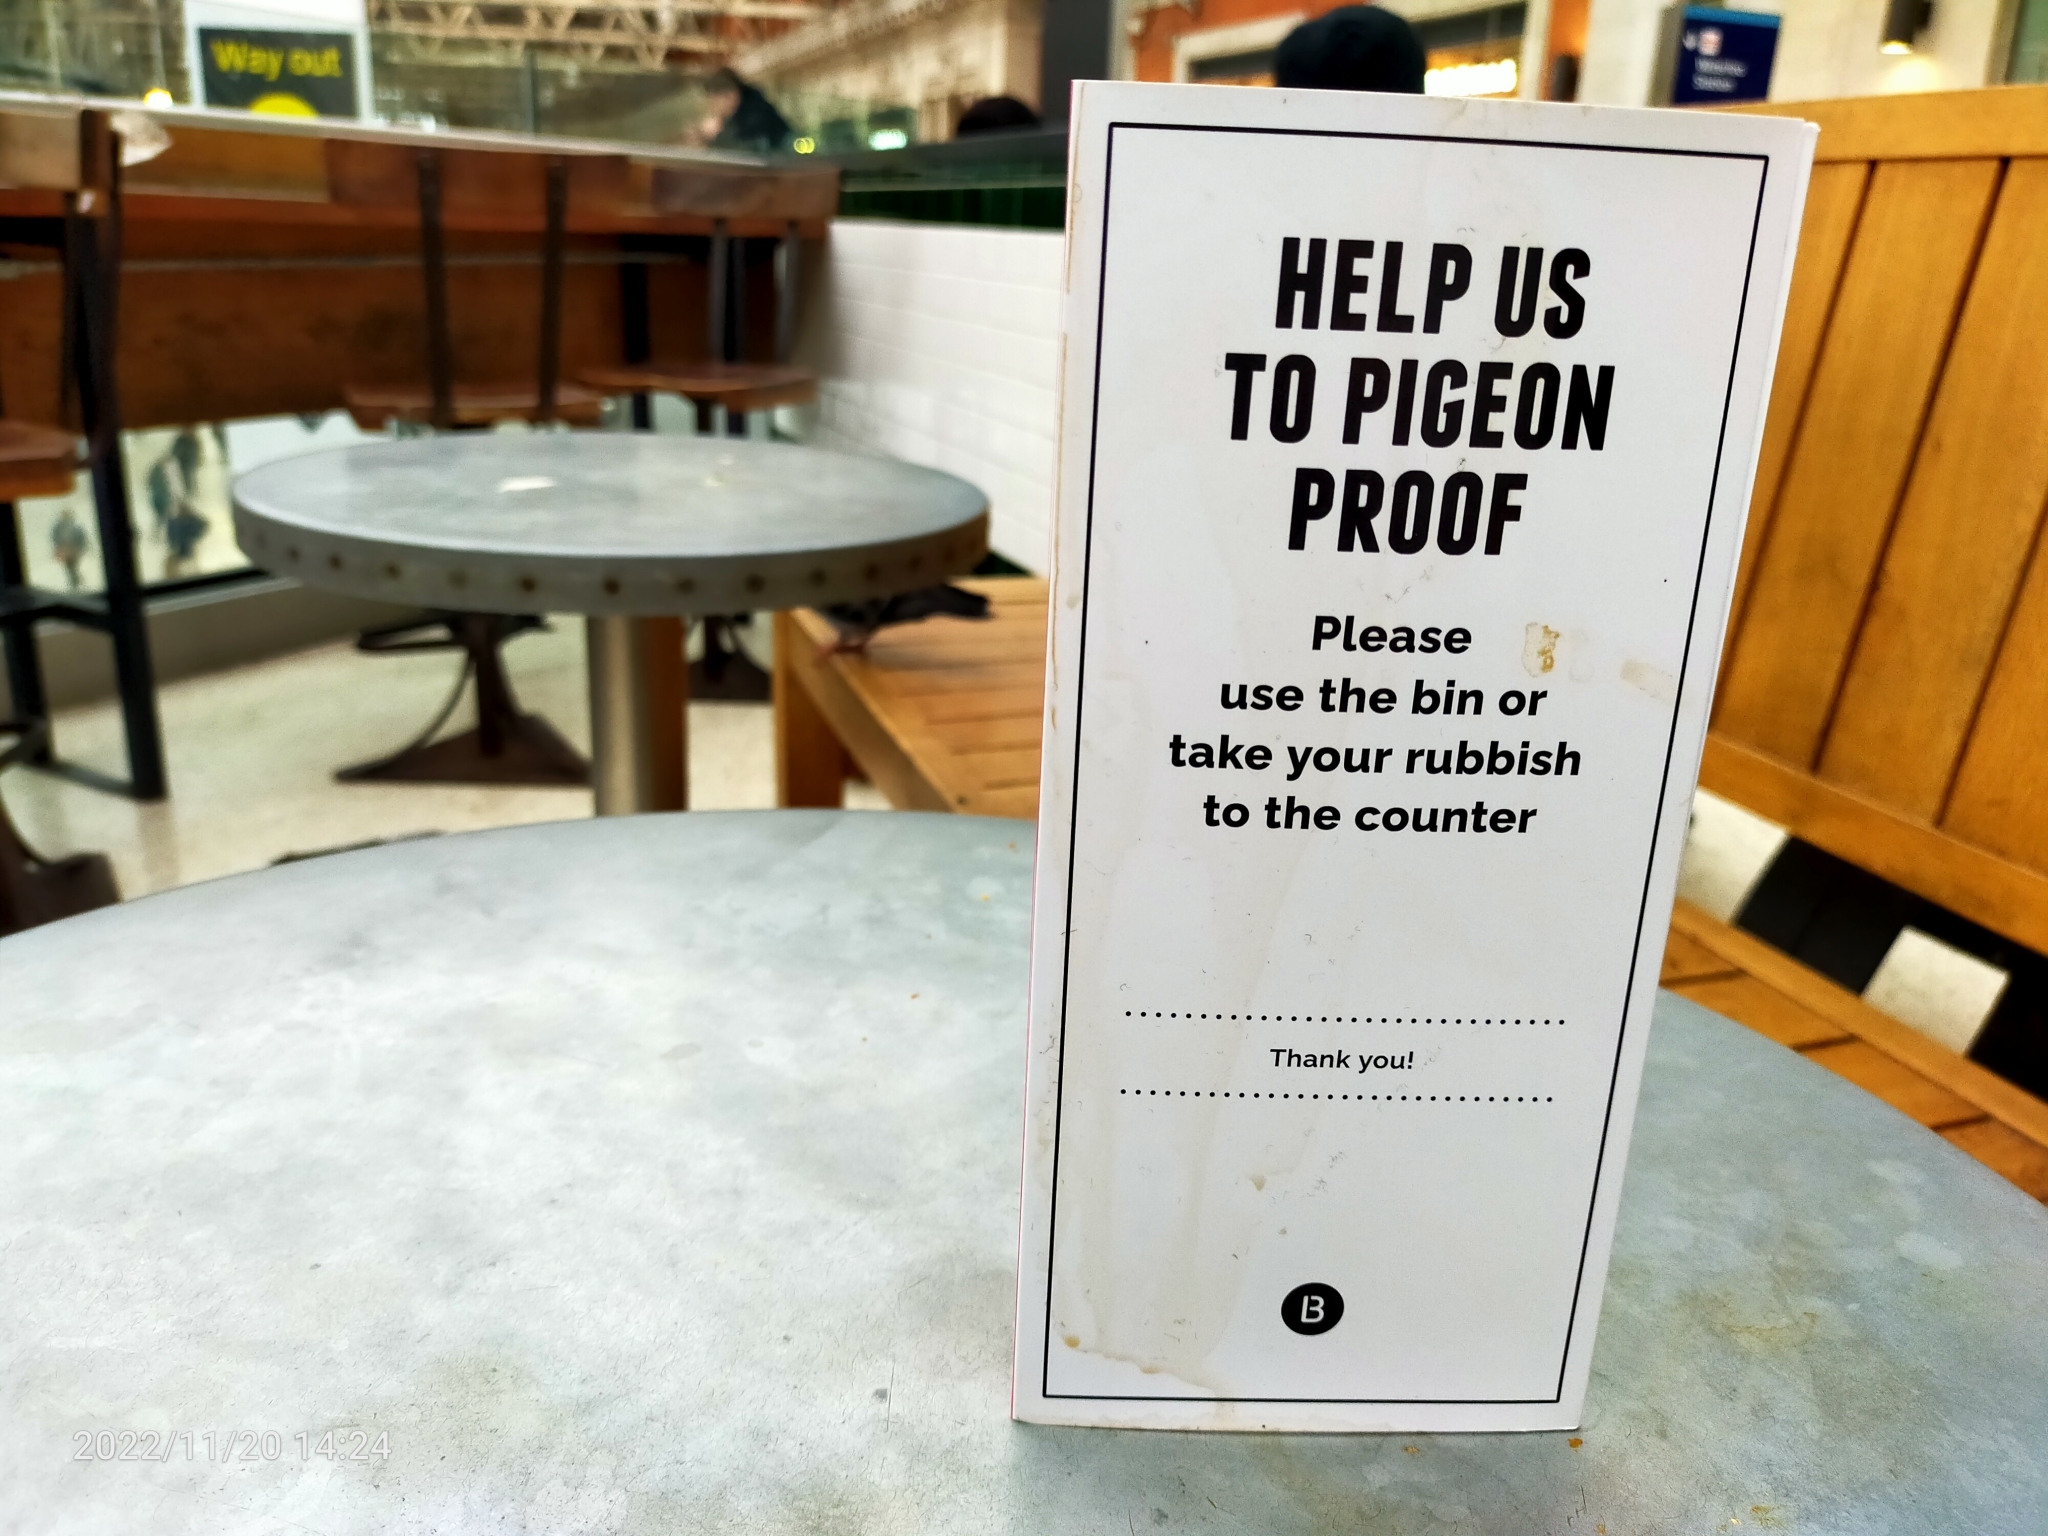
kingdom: Animalia
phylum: Chordata
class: Aves
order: Columbiformes
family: Columbidae
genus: Columba
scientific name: Columba livia
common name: Rock pigeon
